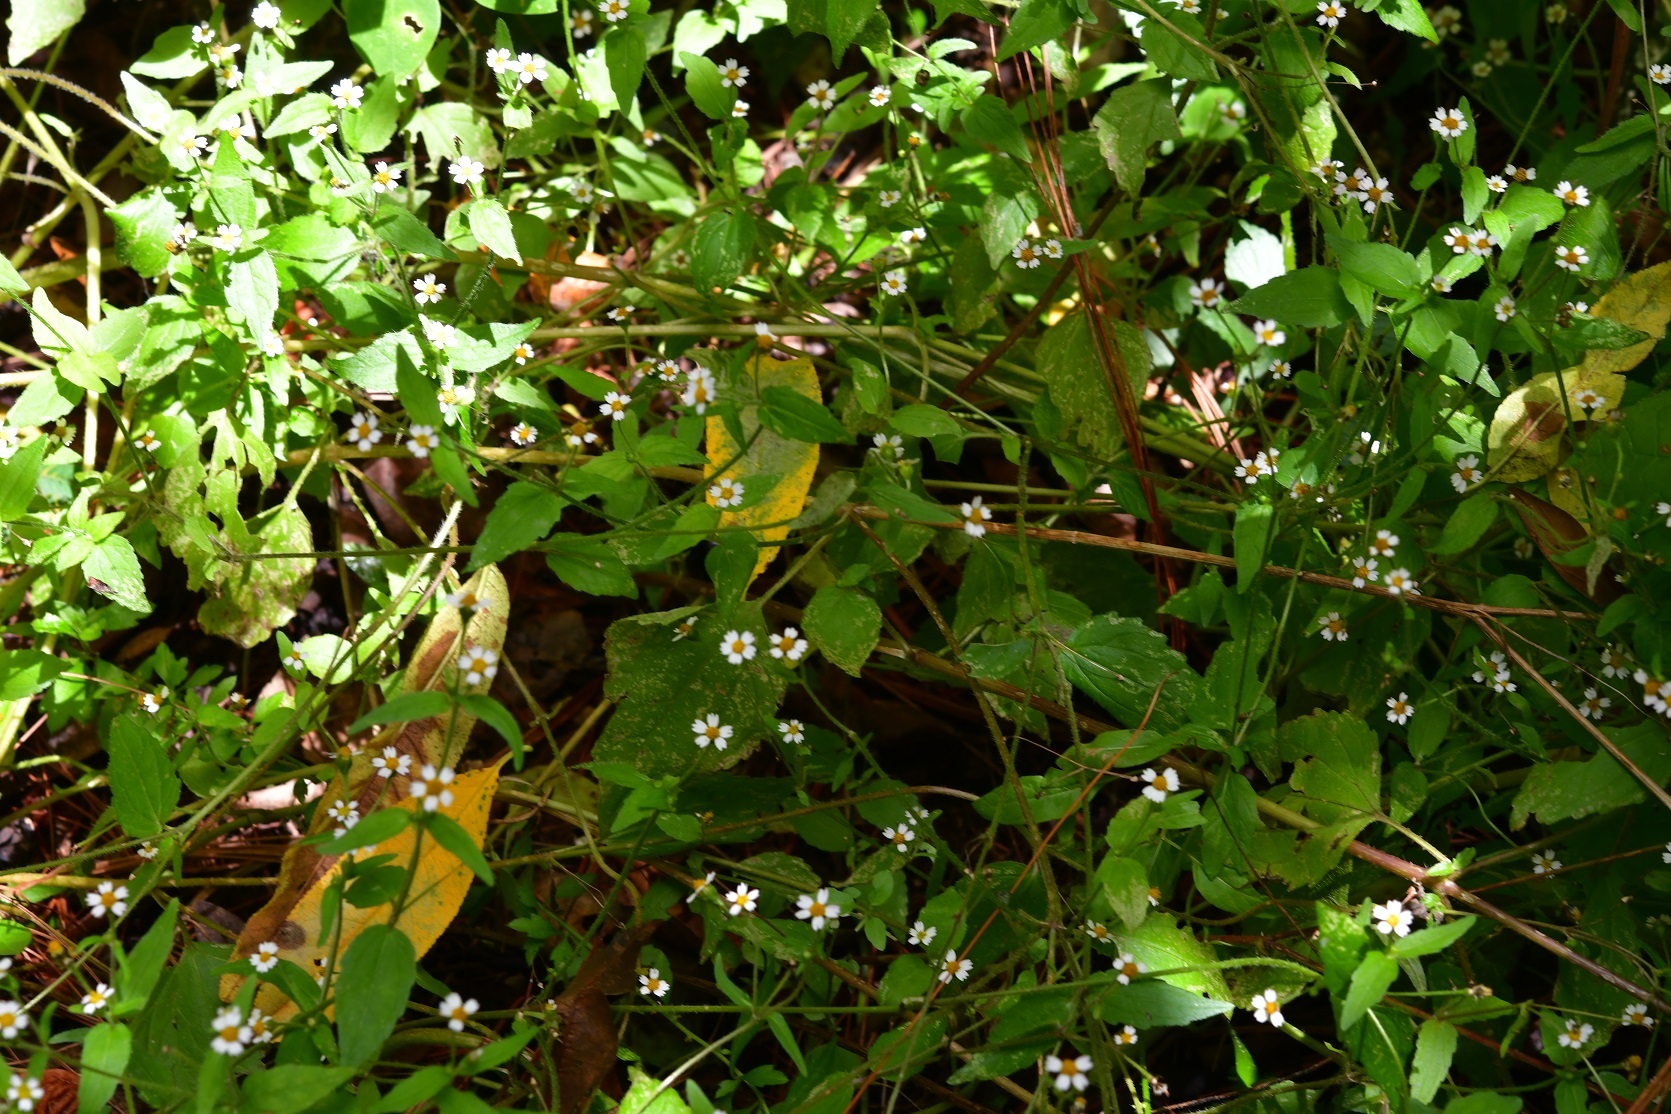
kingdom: Plantae
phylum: Tracheophyta
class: Magnoliopsida
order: Asterales
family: Asteraceae
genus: Galinsoga
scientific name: Galinsoga quadriradiata
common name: Shaggy soldier
